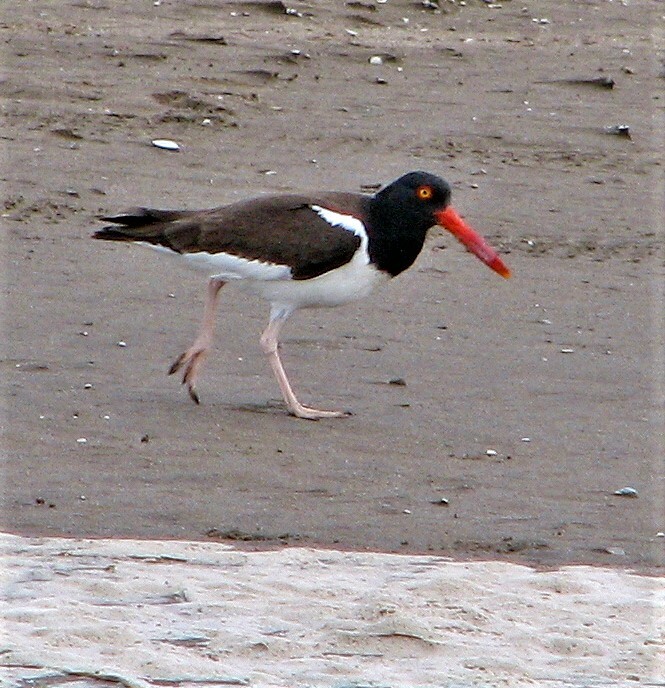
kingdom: Animalia
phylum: Chordata
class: Aves
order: Charadriiformes
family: Haematopodidae
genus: Haematopus
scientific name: Haematopus palliatus
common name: American oystercatcher
